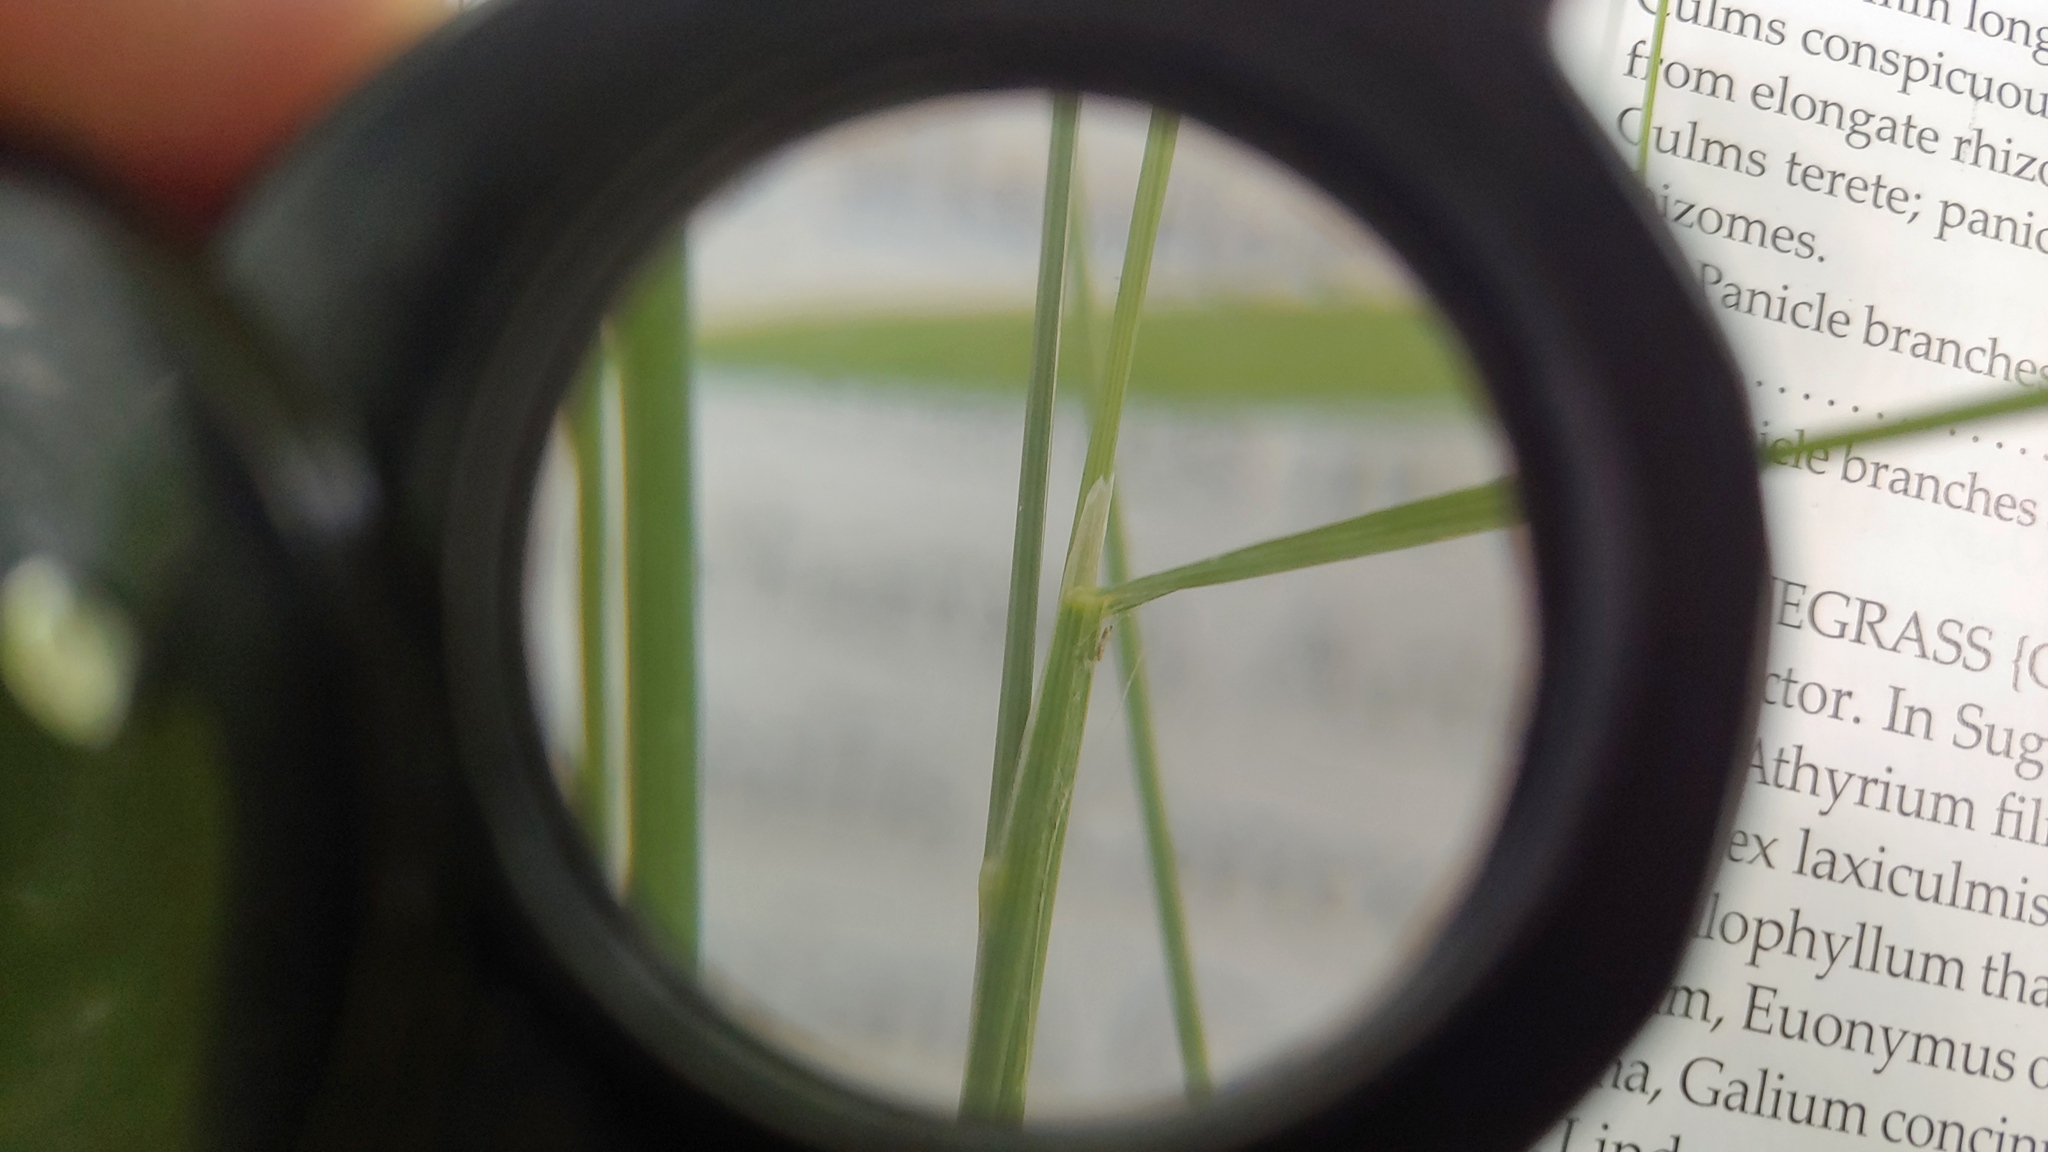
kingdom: Plantae
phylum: Tracheophyta
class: Liliopsida
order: Poales
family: Poaceae
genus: Agrostis
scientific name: Agrostis perennans
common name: Autumn bent
